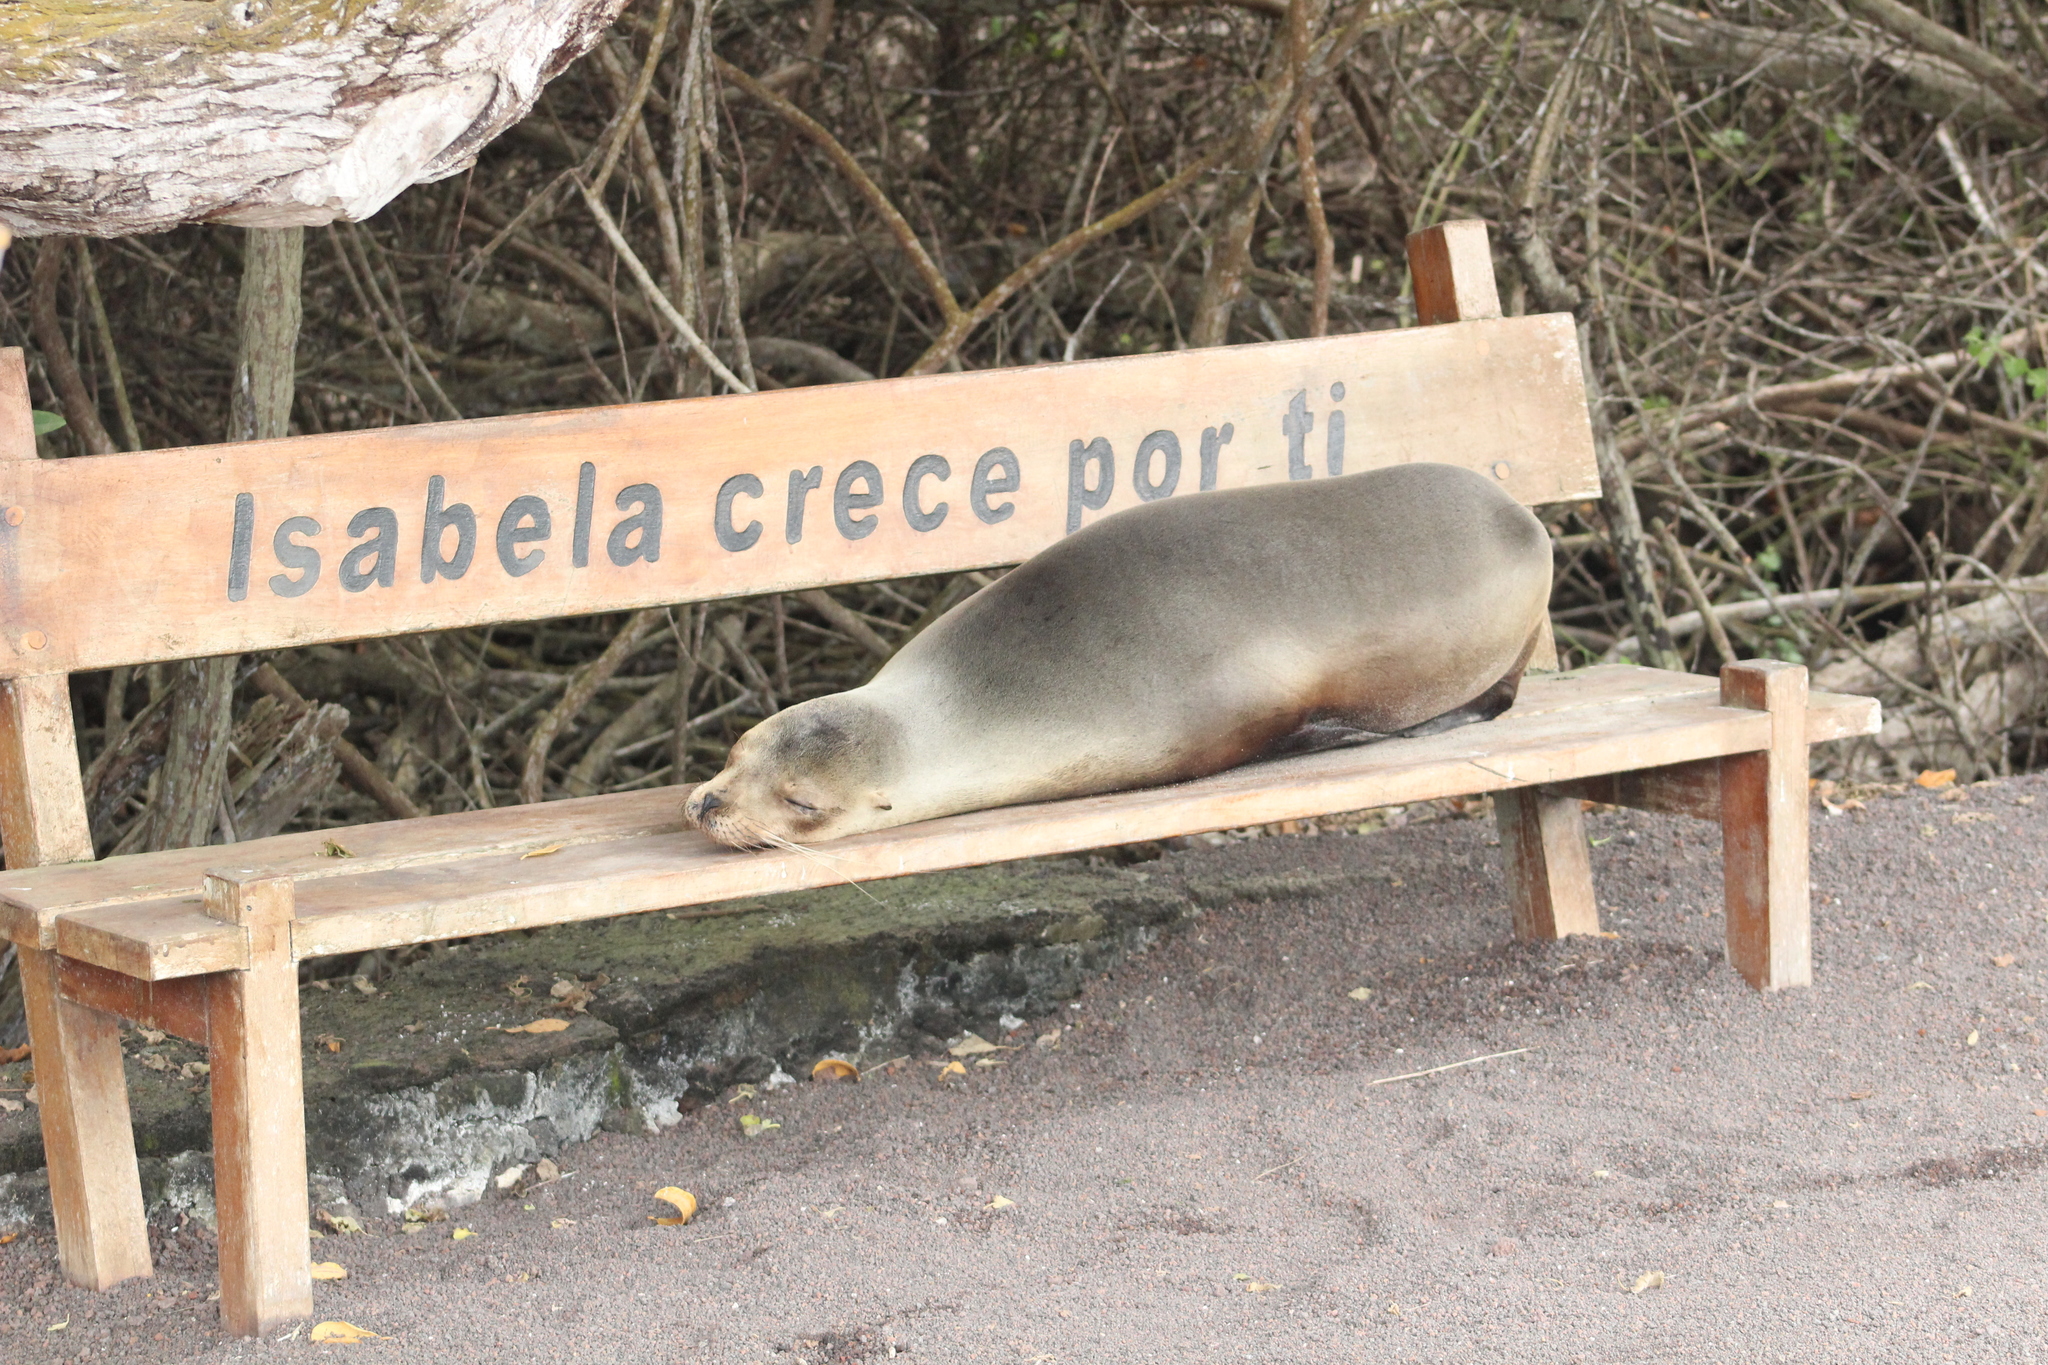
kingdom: Animalia
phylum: Chordata
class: Mammalia
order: Carnivora
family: Otariidae
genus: Zalophus
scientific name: Zalophus wollebaeki
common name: Galapagos sea lion
